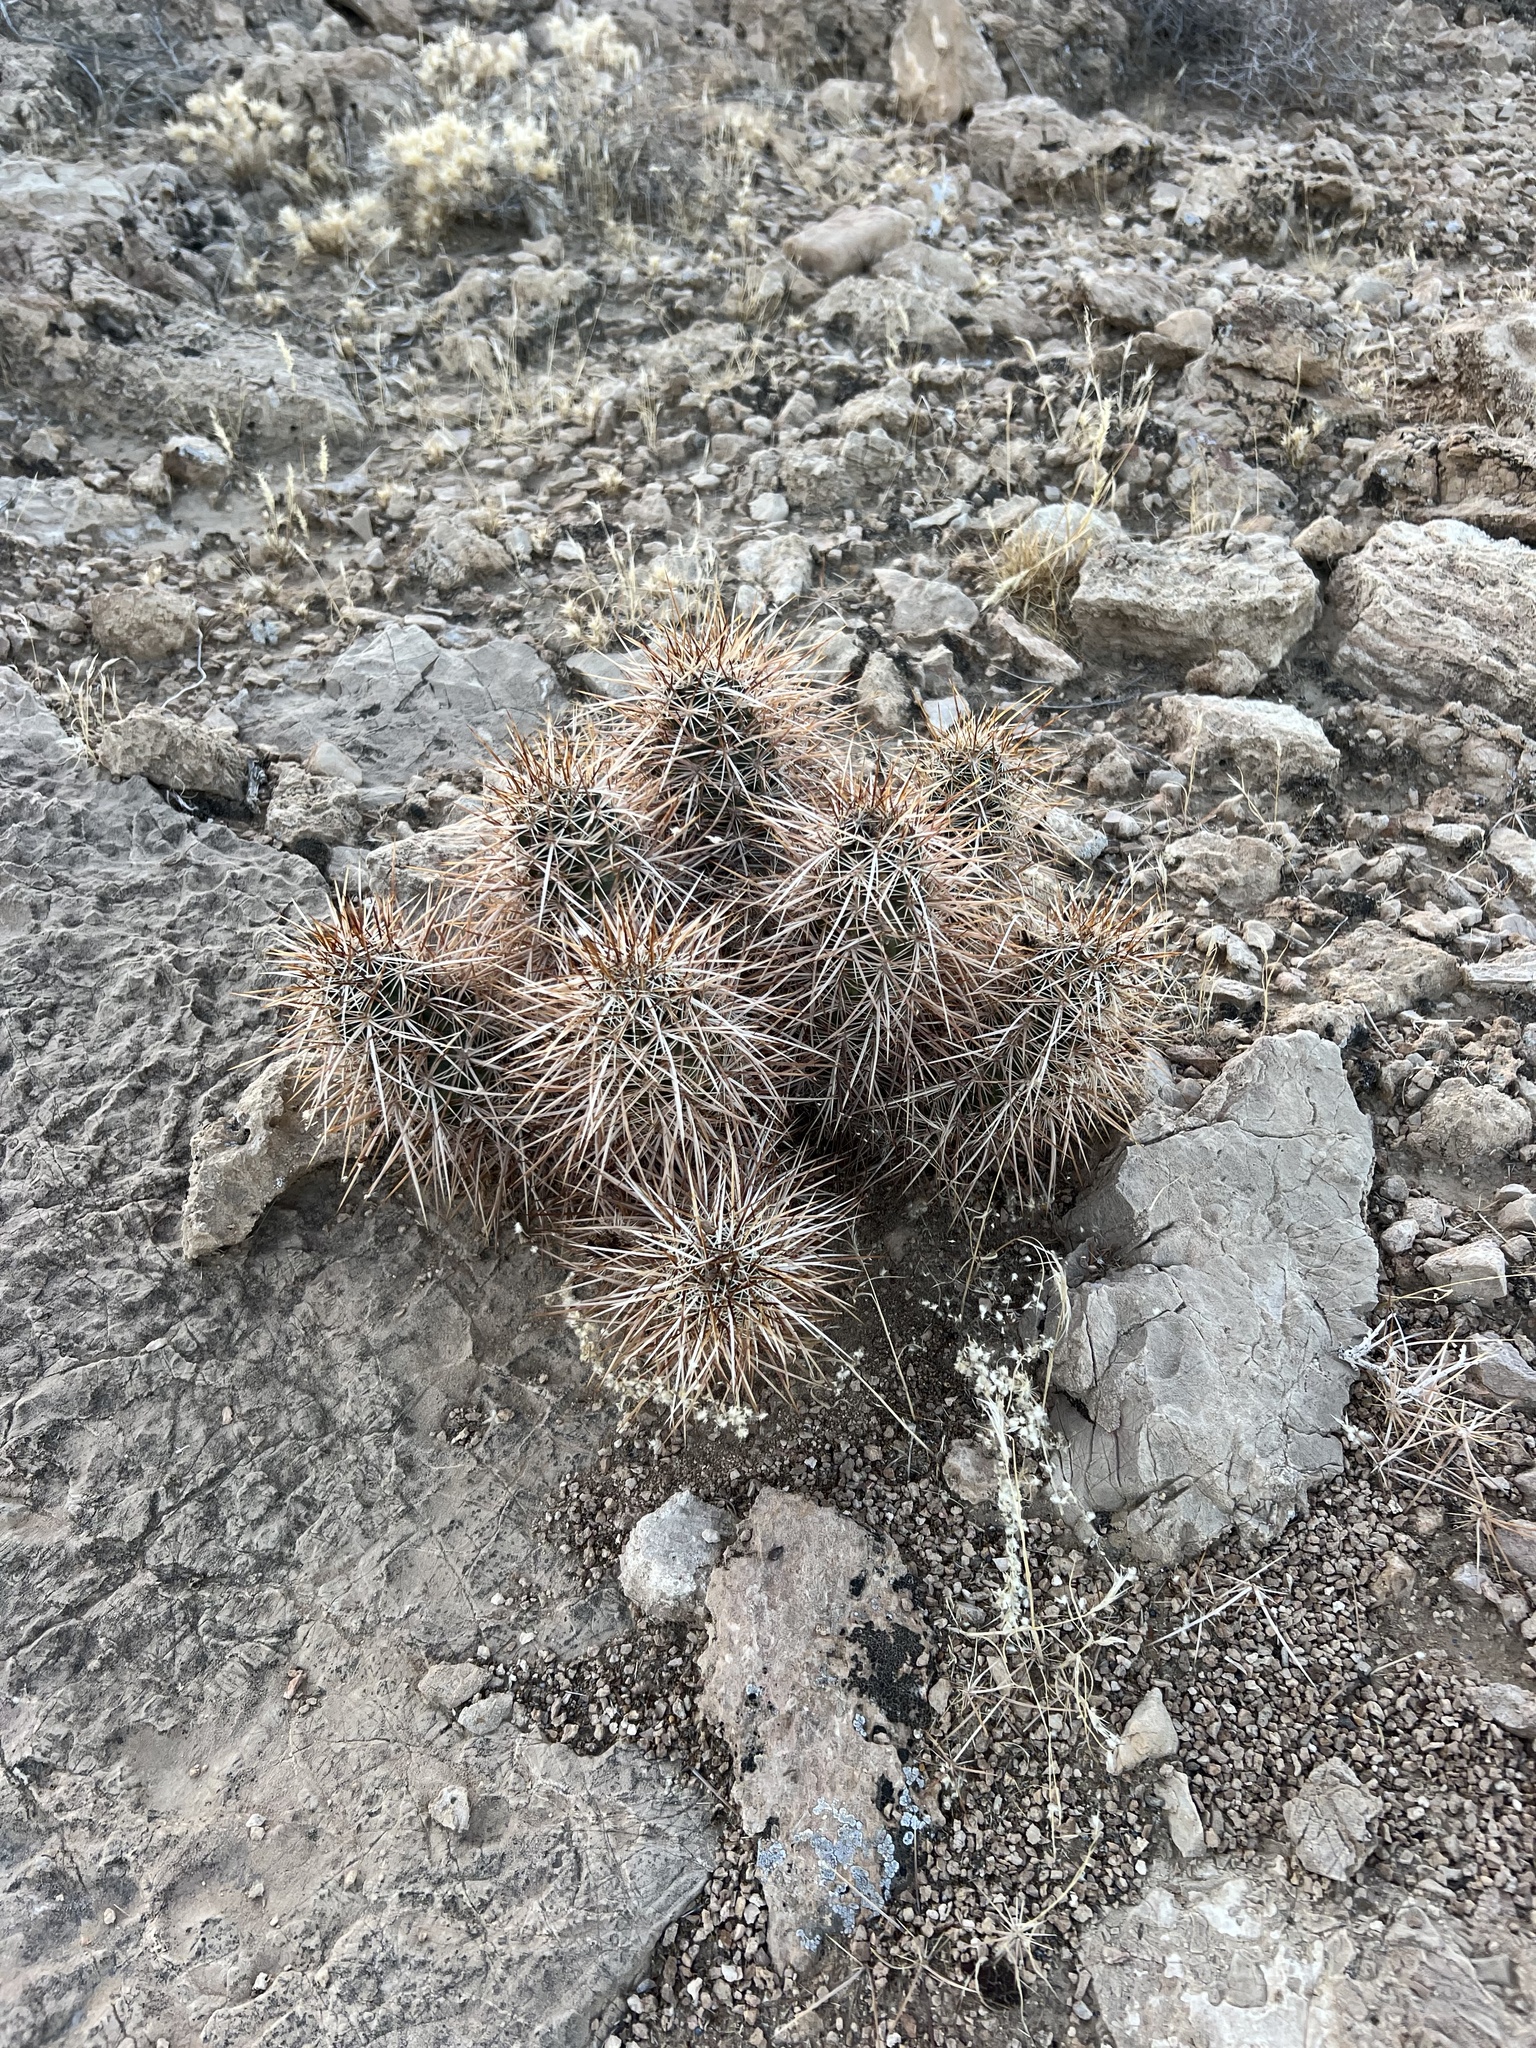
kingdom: Plantae
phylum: Tracheophyta
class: Magnoliopsida
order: Caryophyllales
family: Cactaceae
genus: Echinocereus
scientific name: Echinocereus engelmannii
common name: Engelmann's hedgehog cactus
